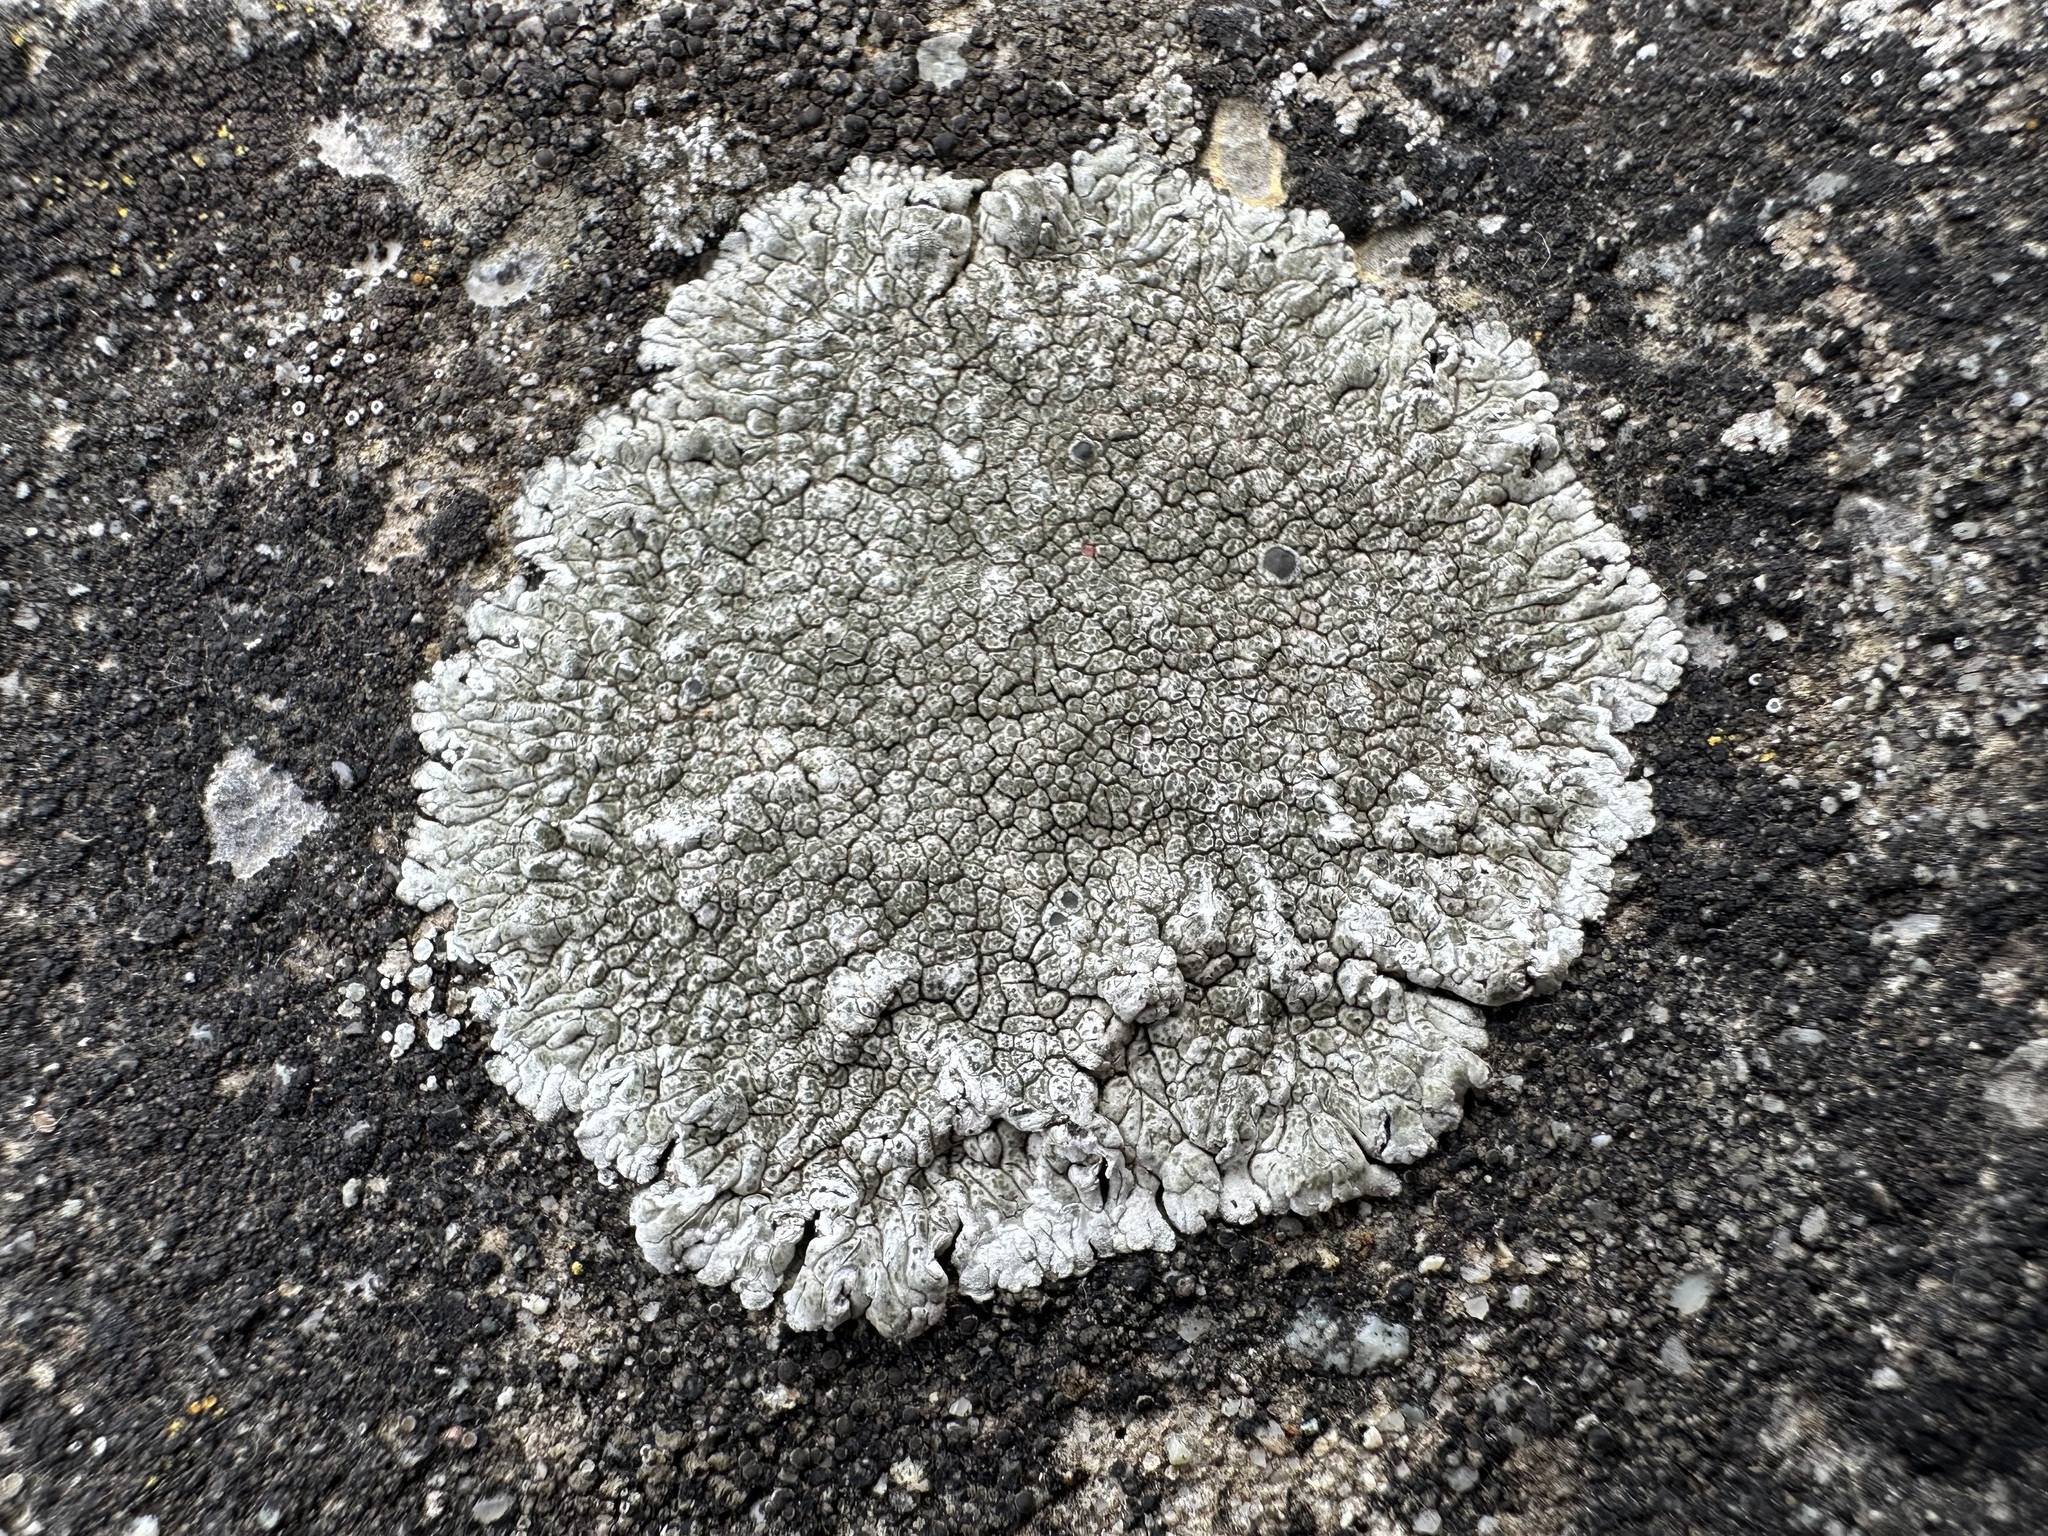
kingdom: Fungi
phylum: Ascomycota
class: Lecanoromycetes
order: Pertusariales
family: Megasporaceae
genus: Lobothallia
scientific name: Lobothallia radiosa
